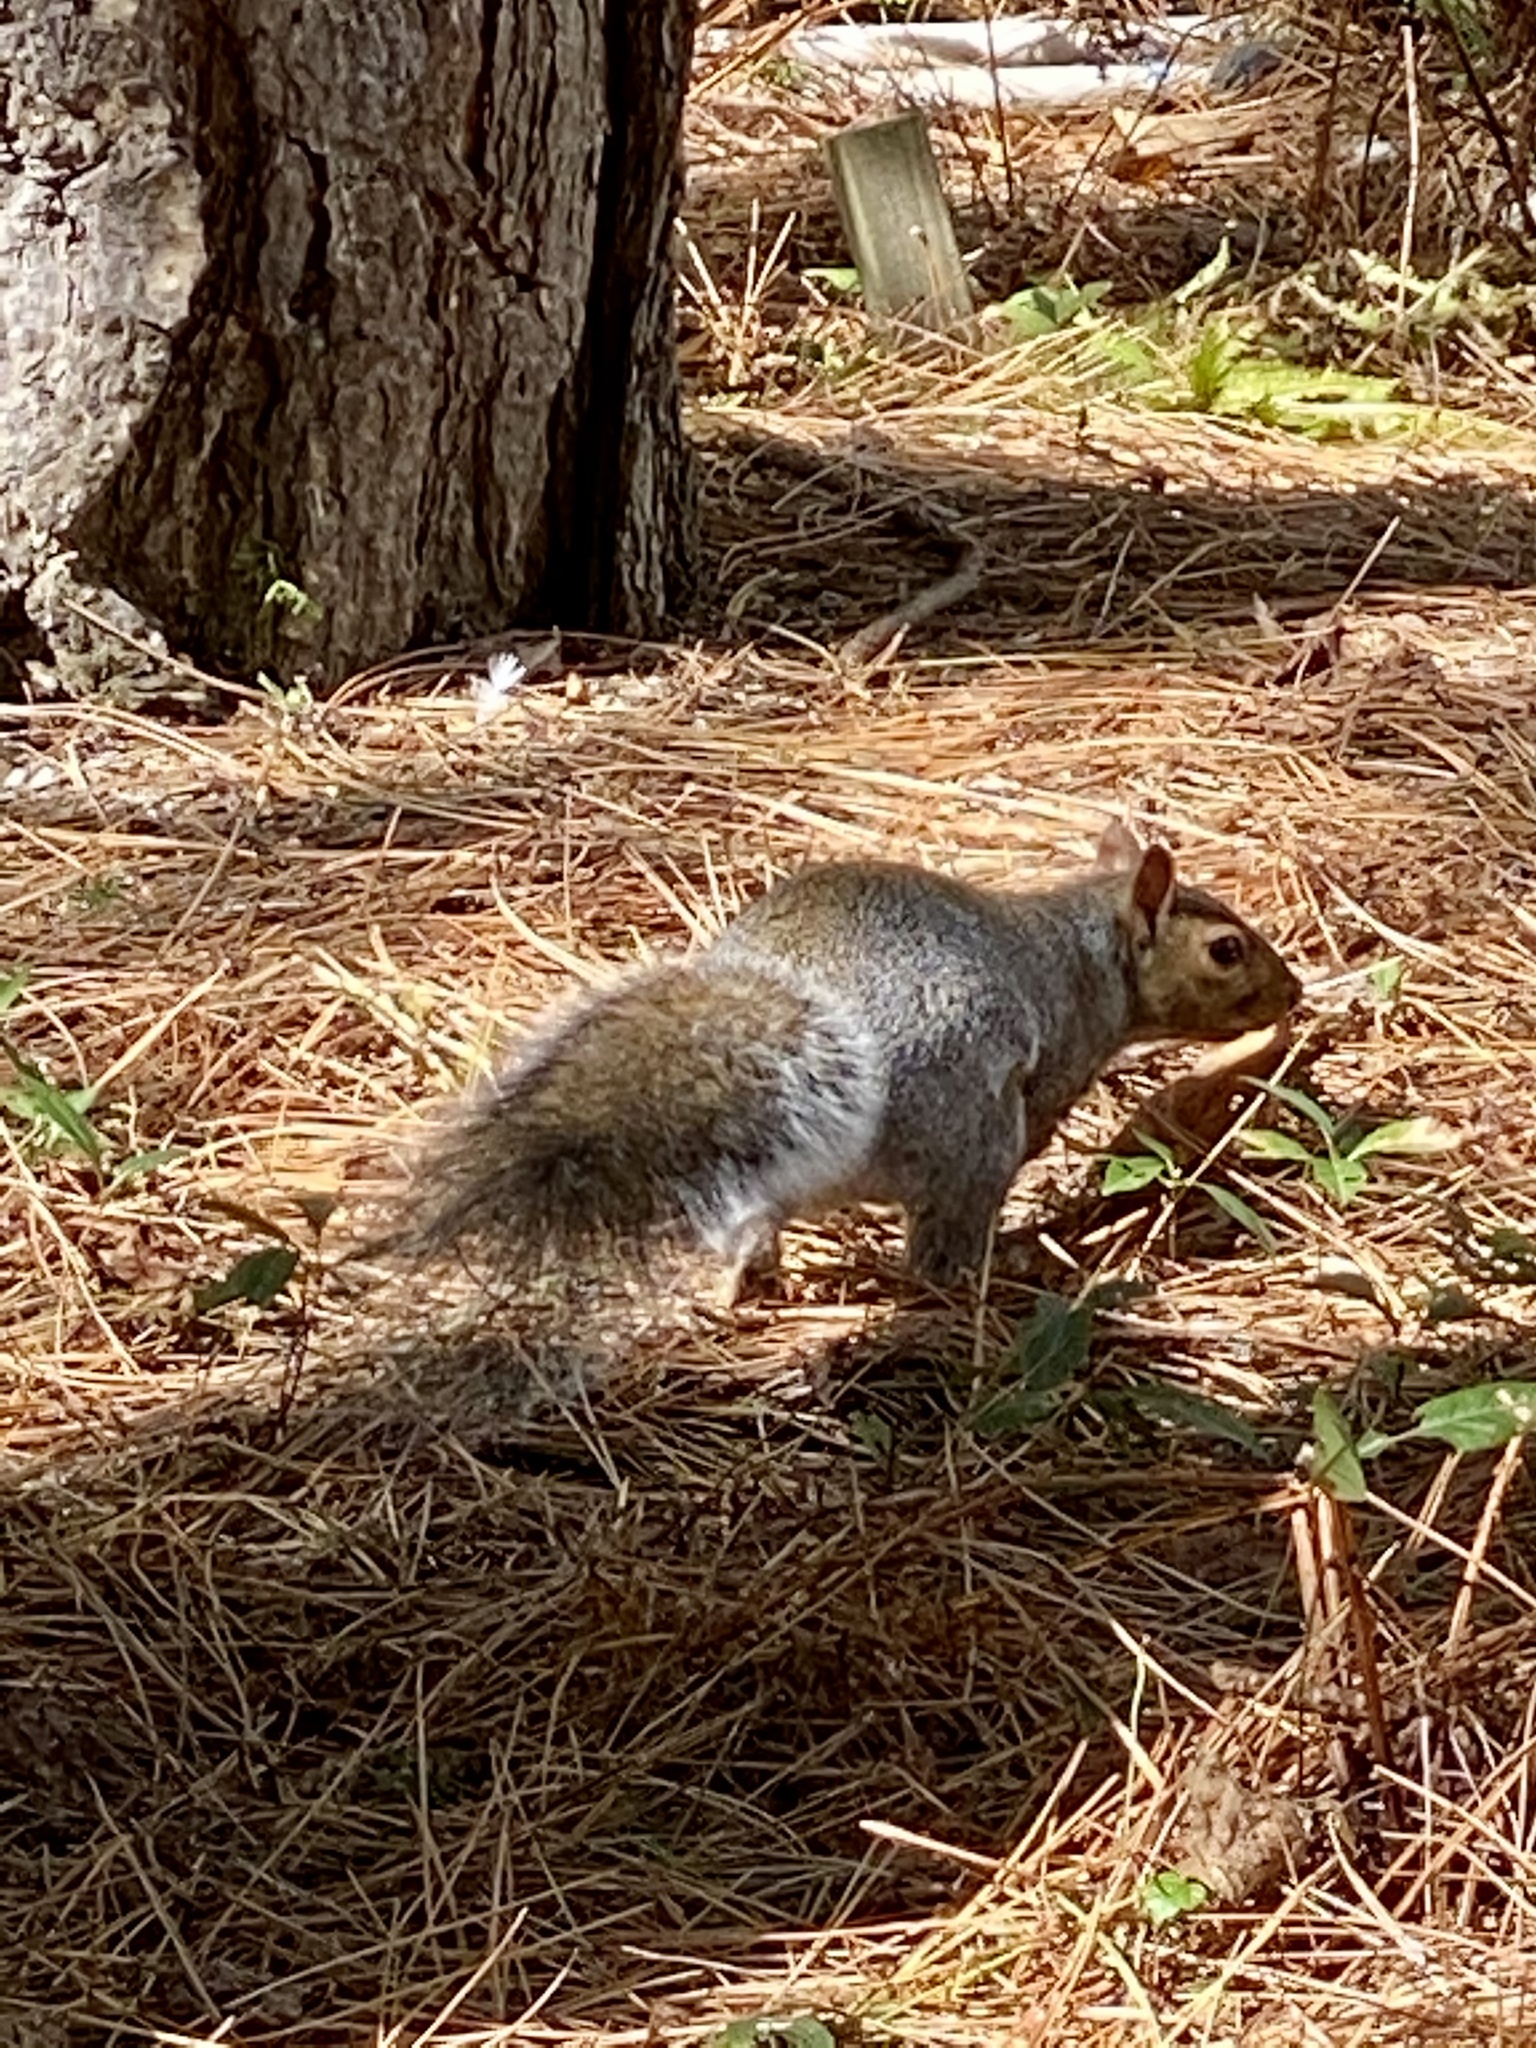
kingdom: Animalia
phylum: Chordata
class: Mammalia
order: Rodentia
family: Sciuridae
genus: Sciurus
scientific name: Sciurus carolinensis
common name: Eastern gray squirrel
